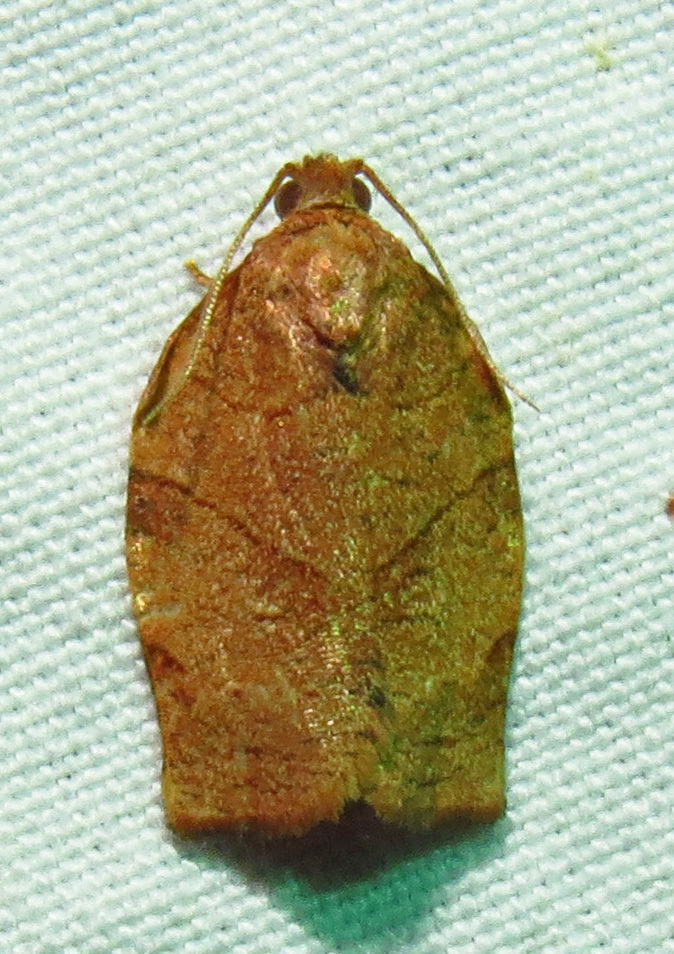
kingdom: Animalia
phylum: Arthropoda
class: Insecta
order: Lepidoptera
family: Tortricidae
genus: Choristoneura
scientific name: Choristoneura rosaceana
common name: Oblique-banded leafroller moth
